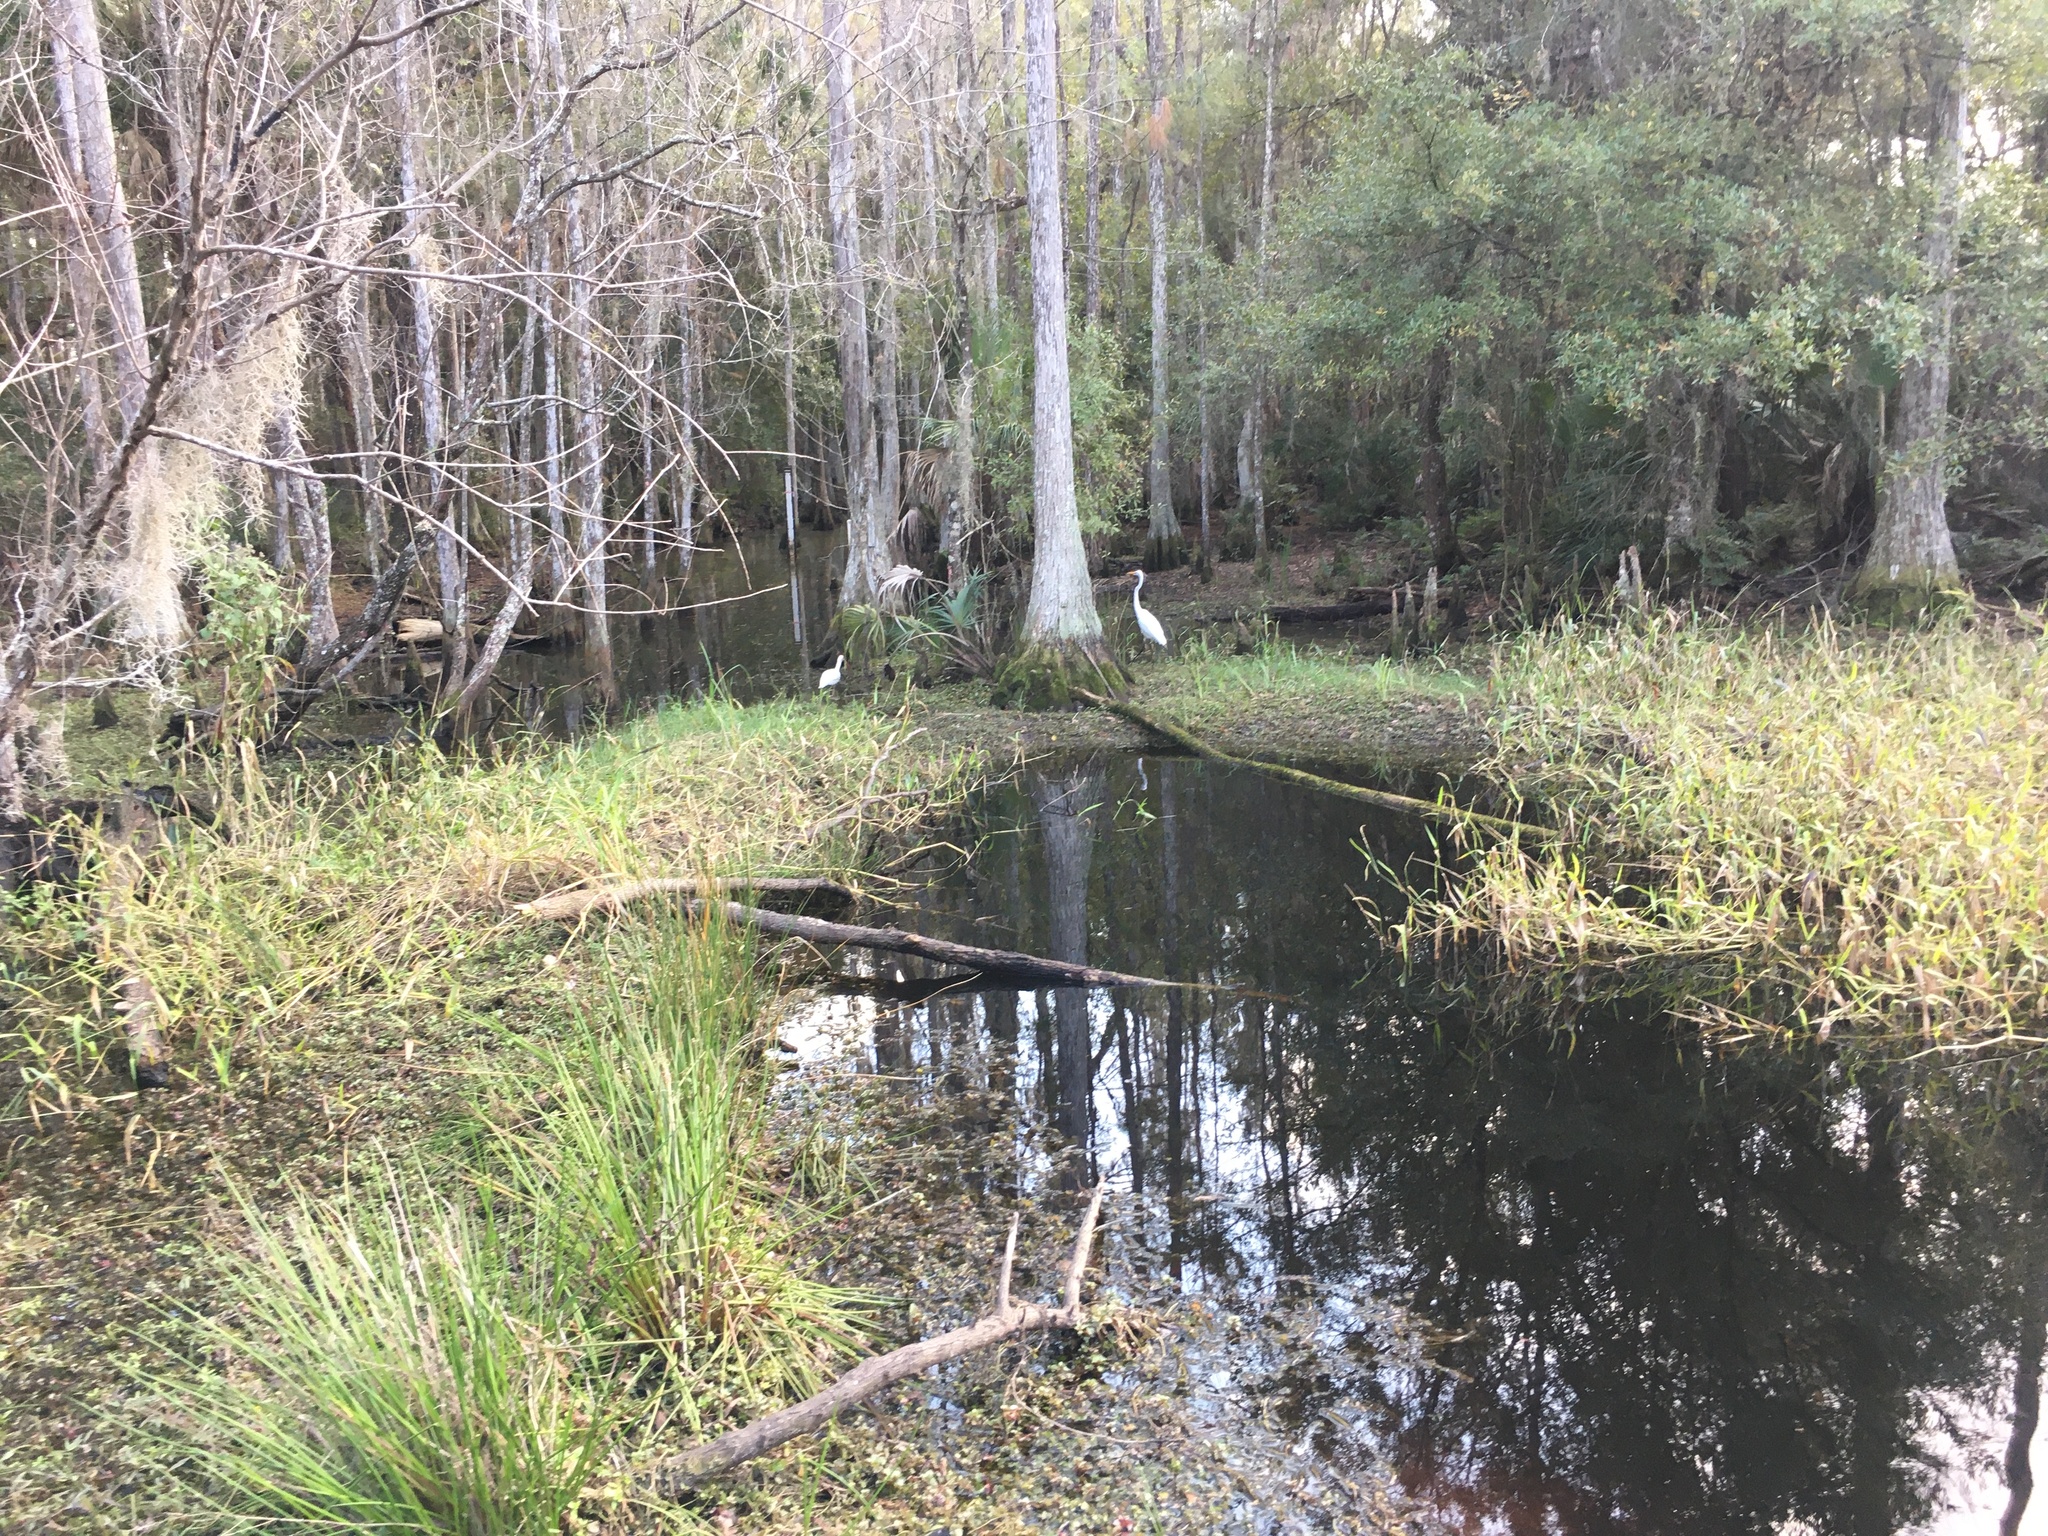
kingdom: Animalia
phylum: Chordata
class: Aves
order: Pelecaniformes
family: Threskiornithidae
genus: Eudocimus
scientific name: Eudocimus albus
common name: White ibis
